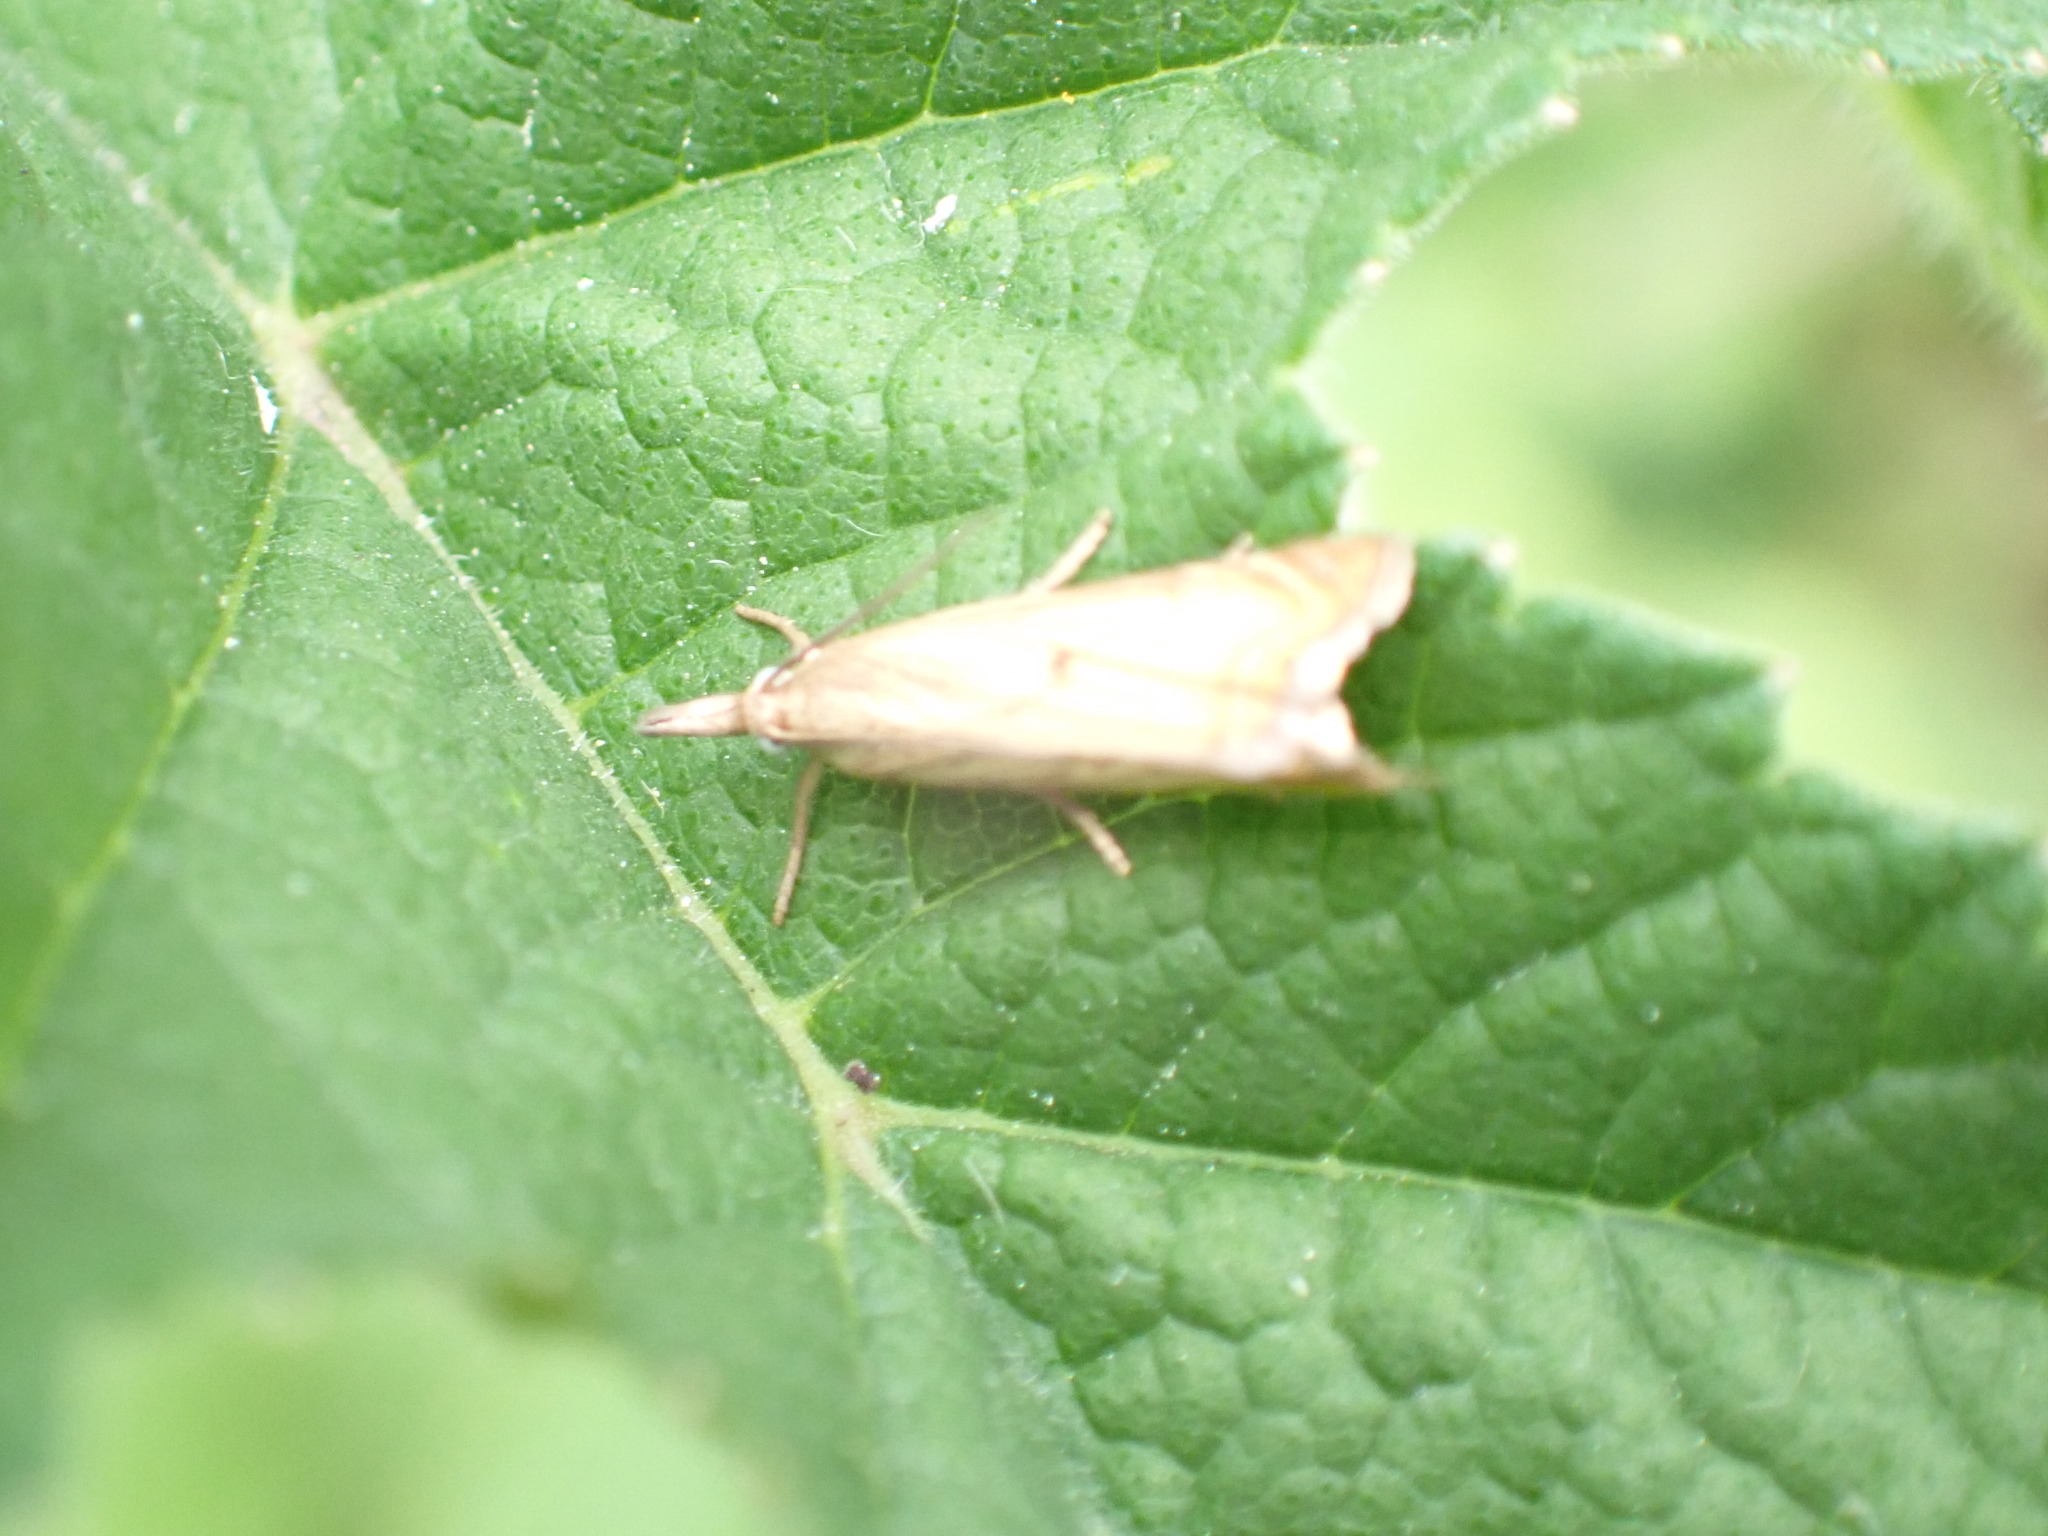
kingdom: Animalia
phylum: Arthropoda
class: Insecta
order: Lepidoptera
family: Crambidae
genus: Chrysoteuchia
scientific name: Chrysoteuchia culmella
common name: Garden grass-veneer
